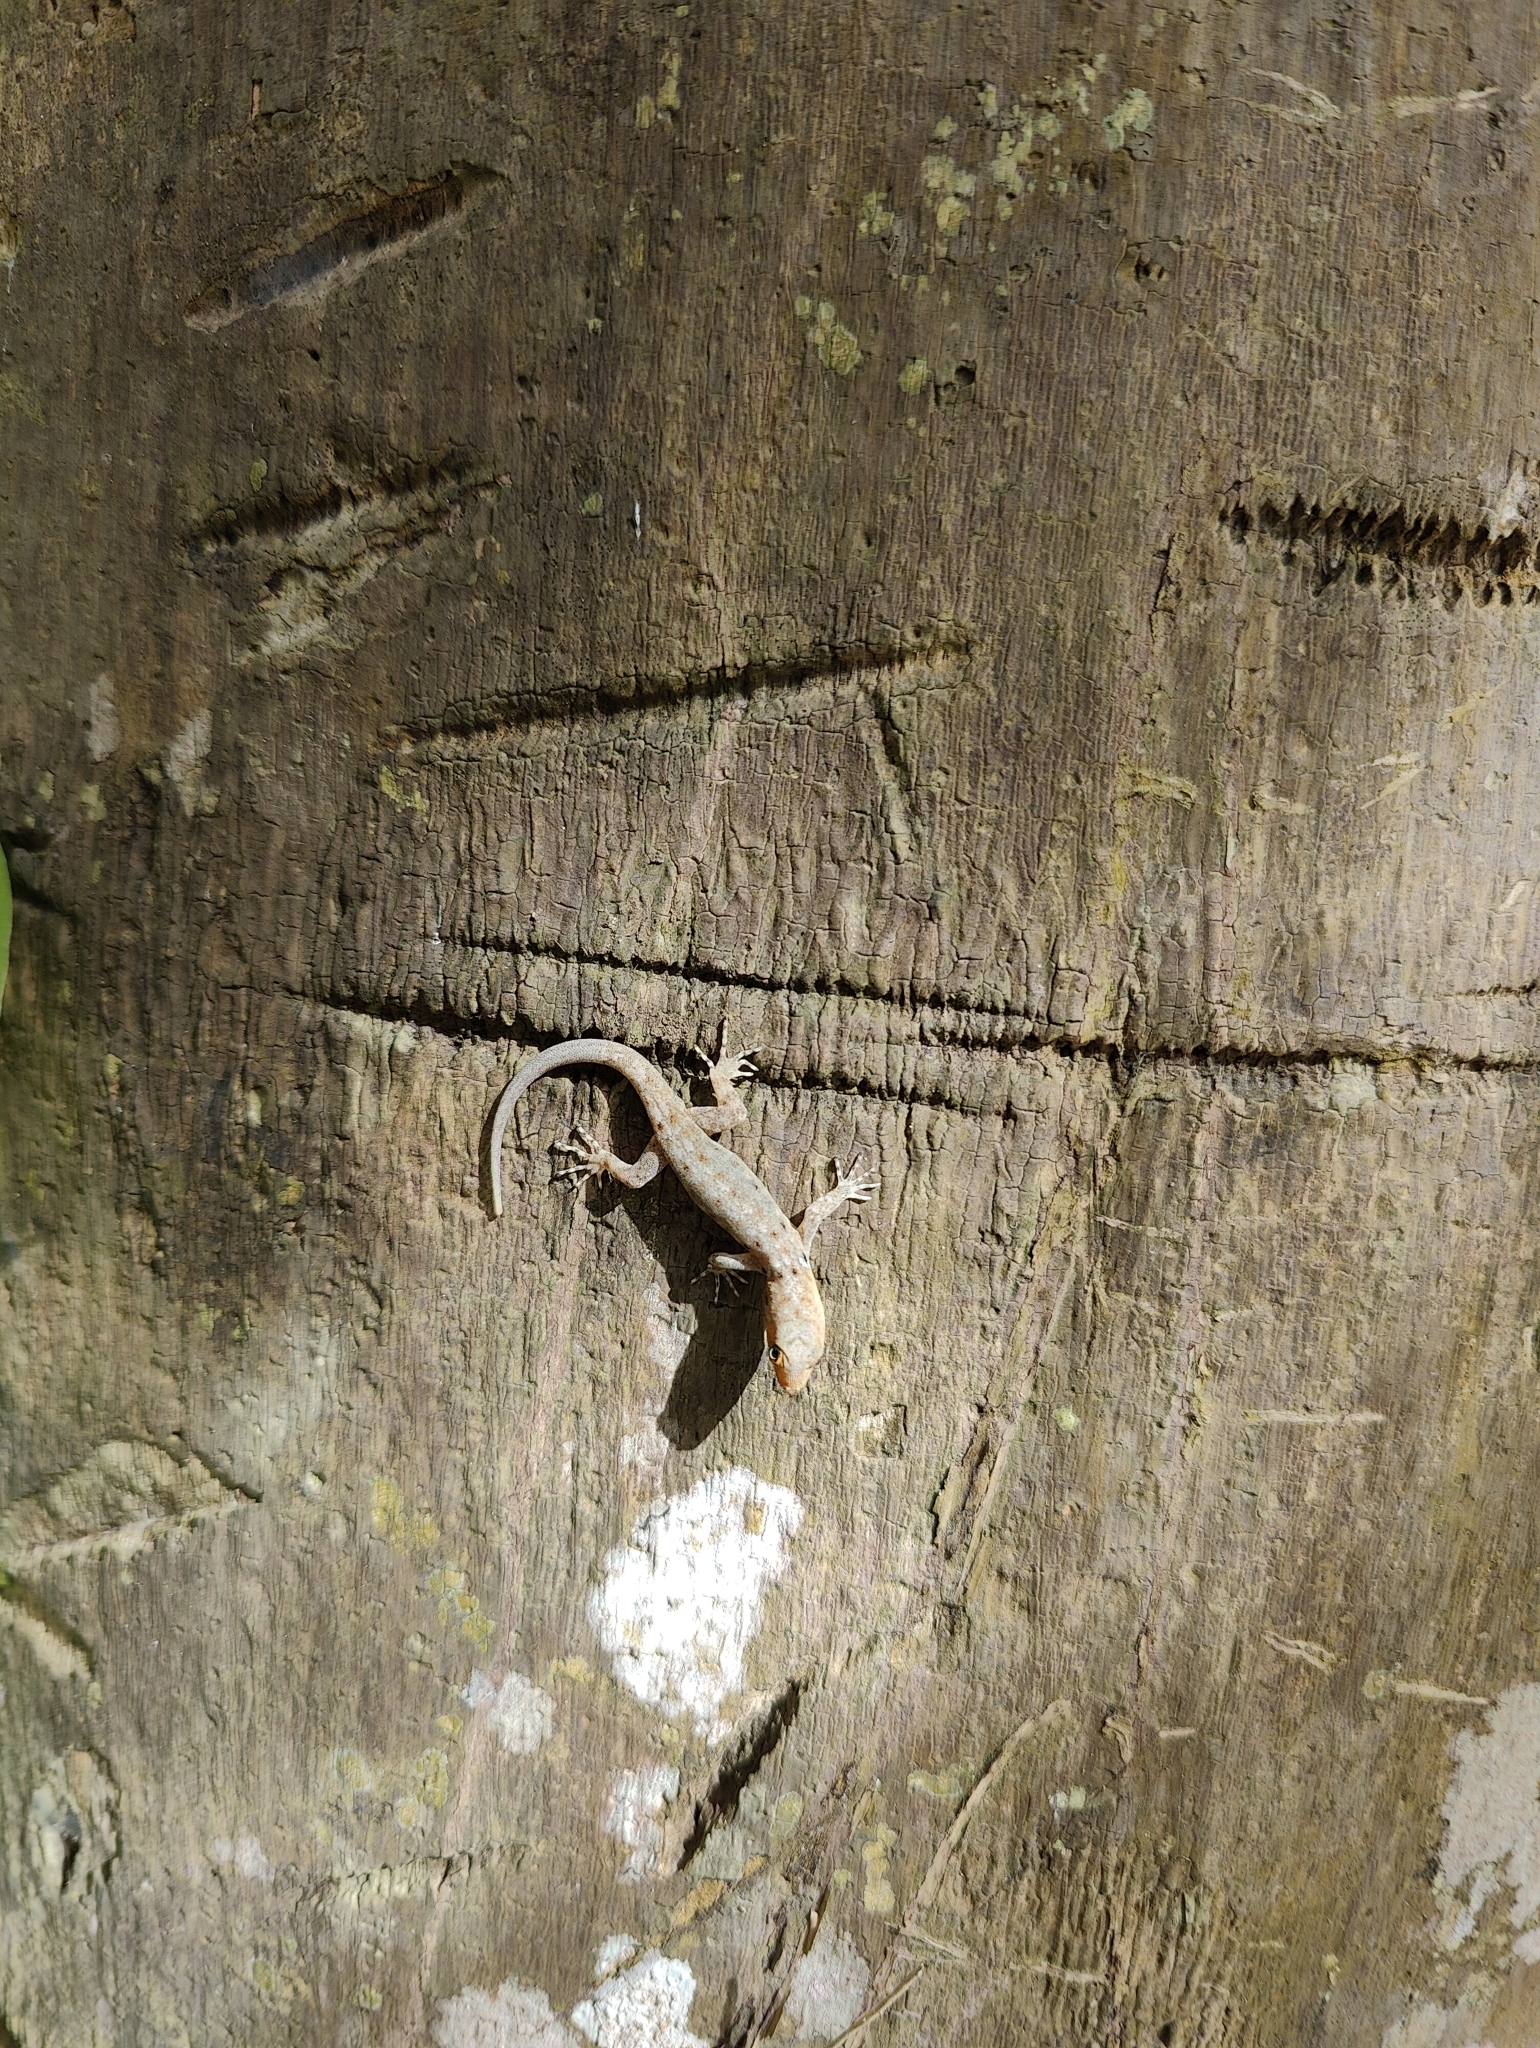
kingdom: Animalia
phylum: Chordata
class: Squamata
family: Sphaerodactylidae
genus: Gonatodes
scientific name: Gonatodes albogularis
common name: Yellow-headed gecko
